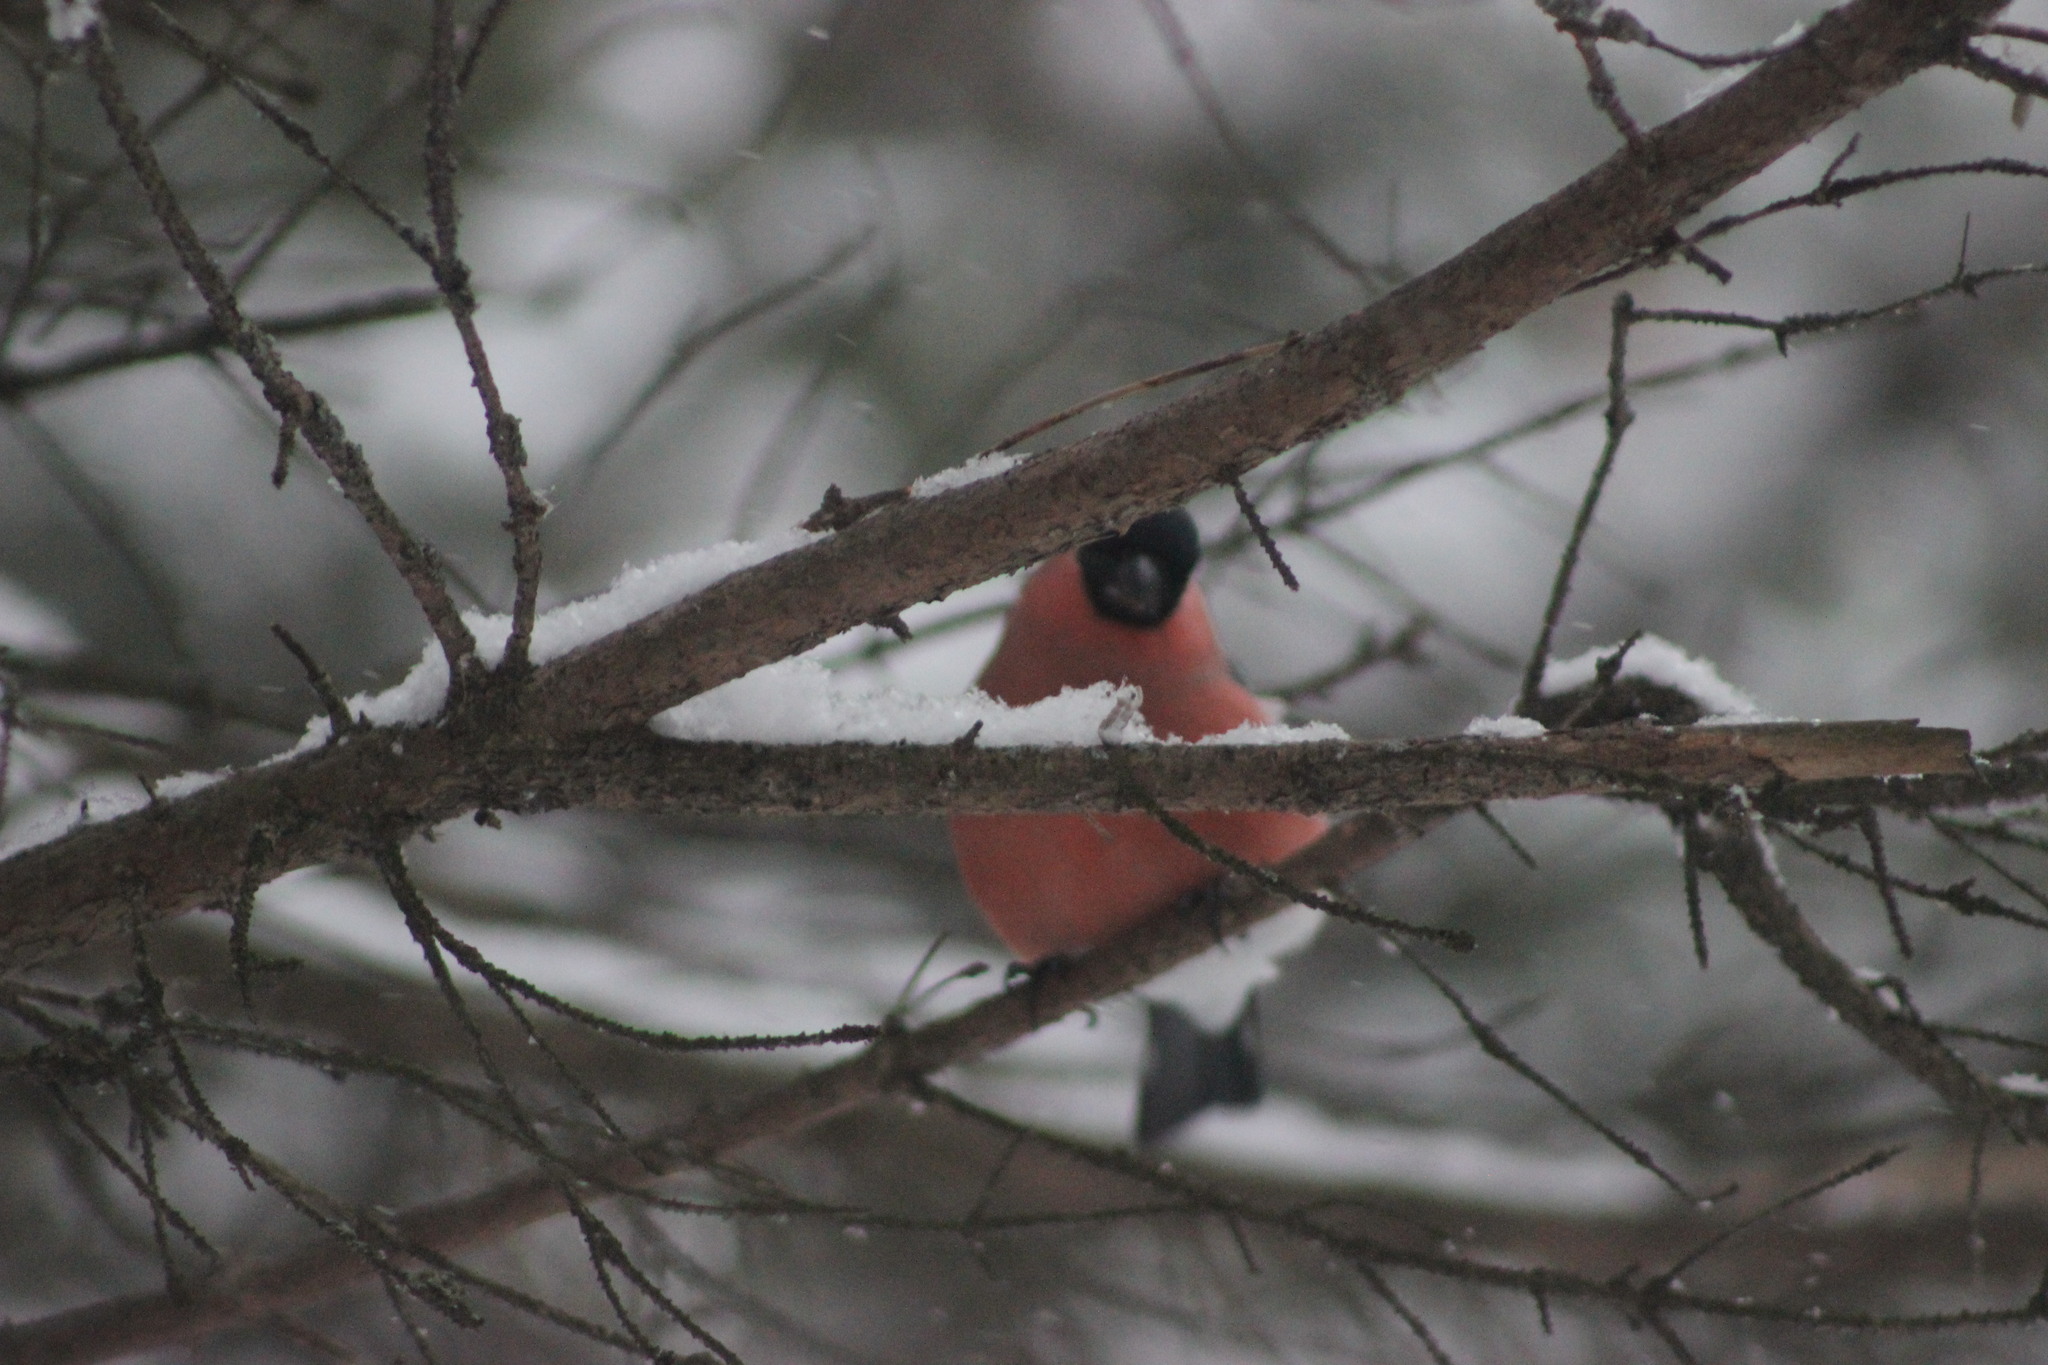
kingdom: Animalia
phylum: Chordata
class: Aves
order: Passeriformes
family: Fringillidae
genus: Pyrrhula
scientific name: Pyrrhula pyrrhula
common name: Eurasian bullfinch
